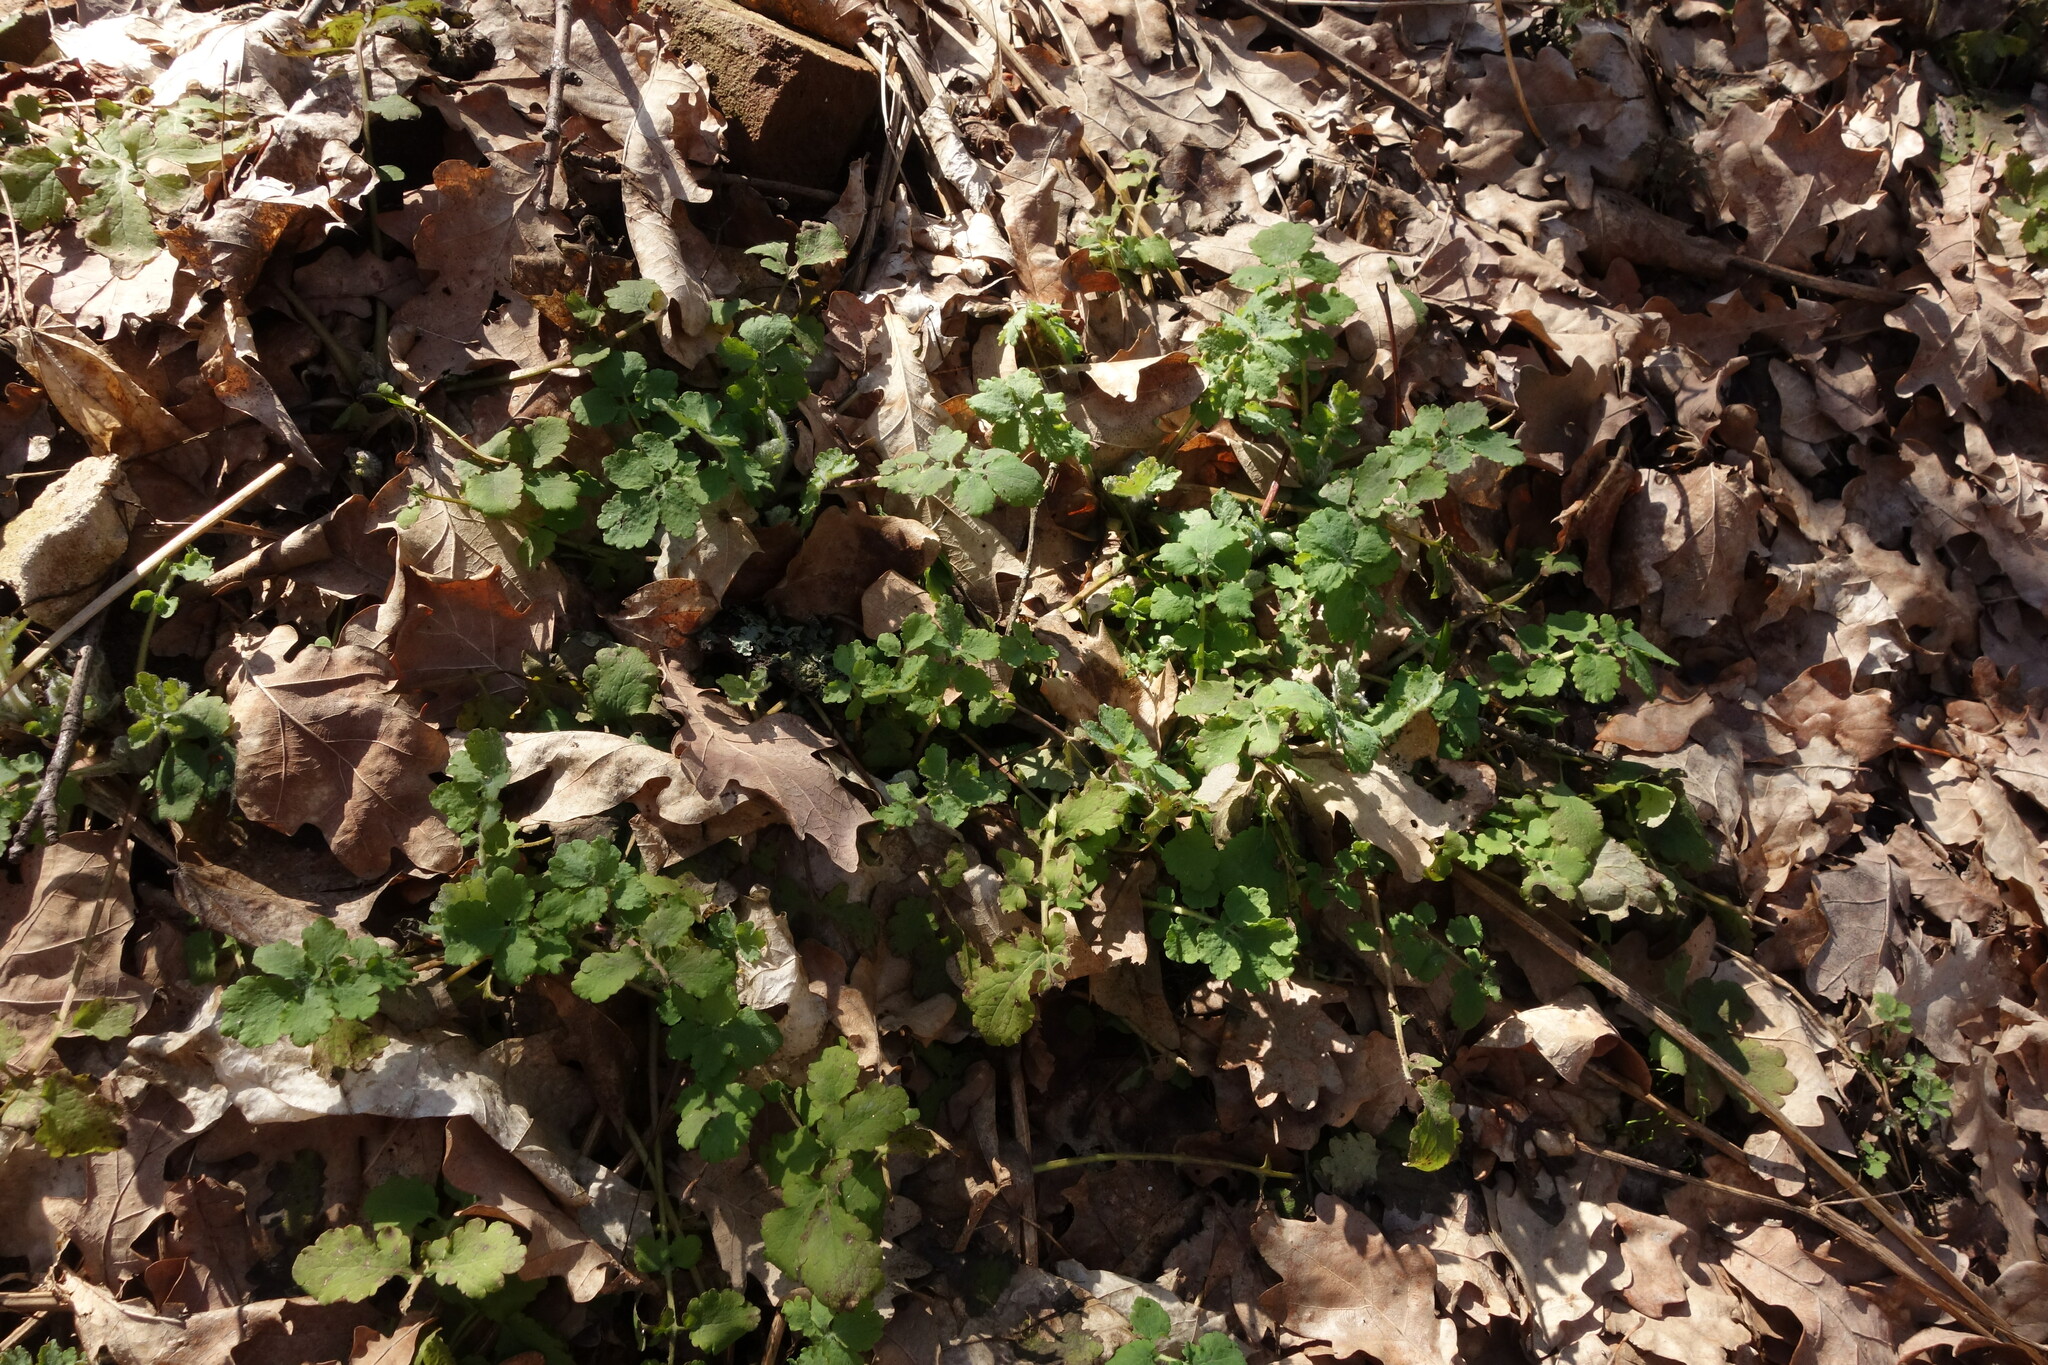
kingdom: Plantae
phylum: Tracheophyta
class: Magnoliopsida
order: Ranunculales
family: Papaveraceae
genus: Chelidonium
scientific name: Chelidonium majus
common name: Greater celandine
